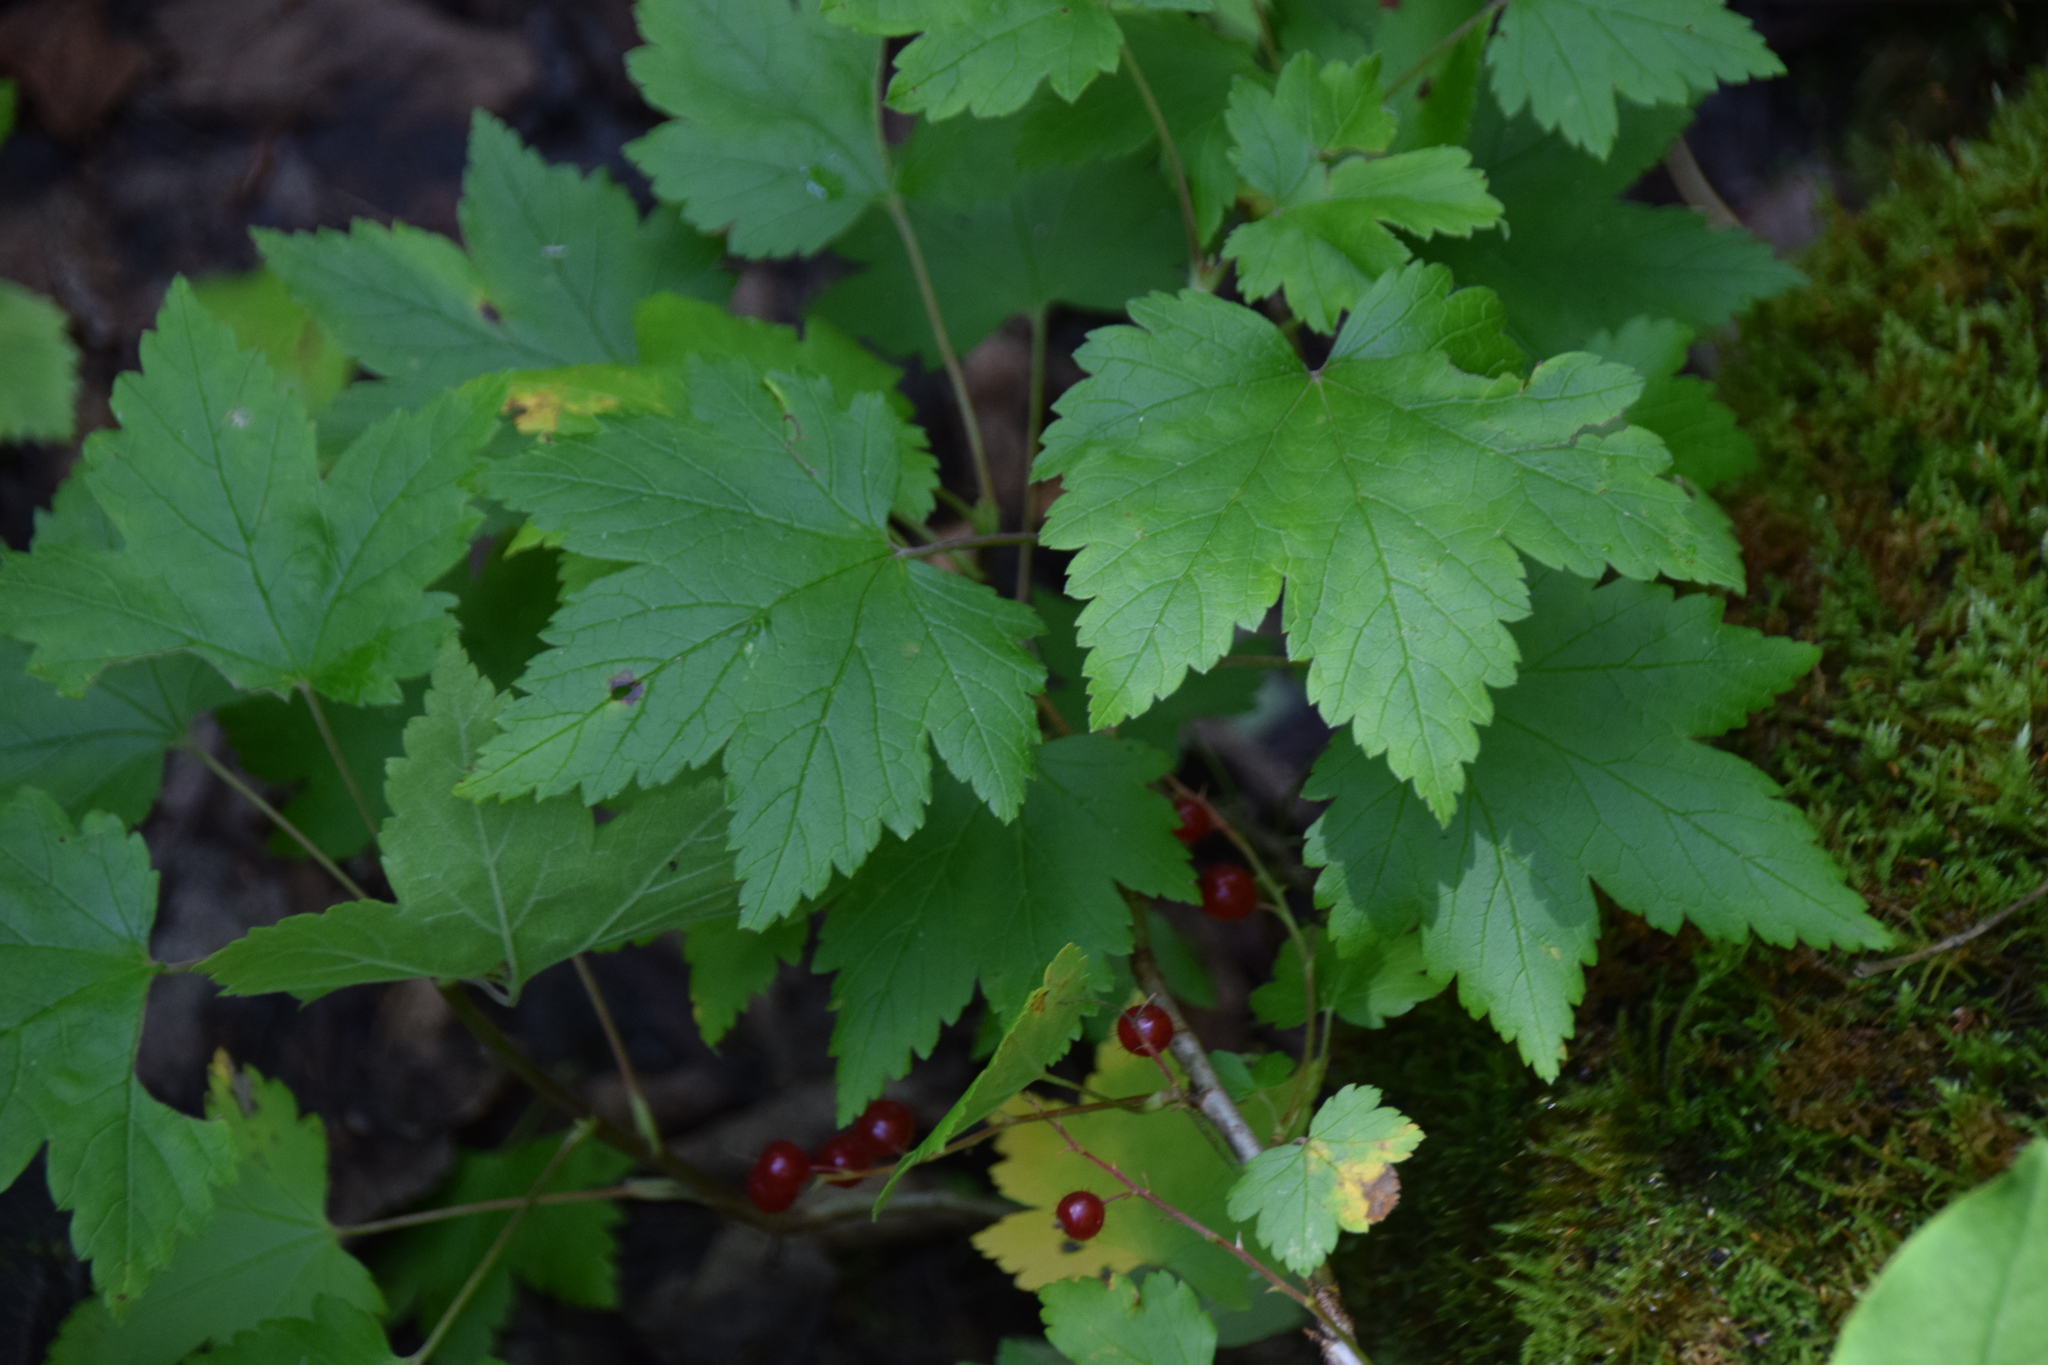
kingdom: Plantae
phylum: Tracheophyta
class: Magnoliopsida
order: Saxifragales
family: Grossulariaceae
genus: Ribes
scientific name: Ribes glandulosum
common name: Skunk currant
